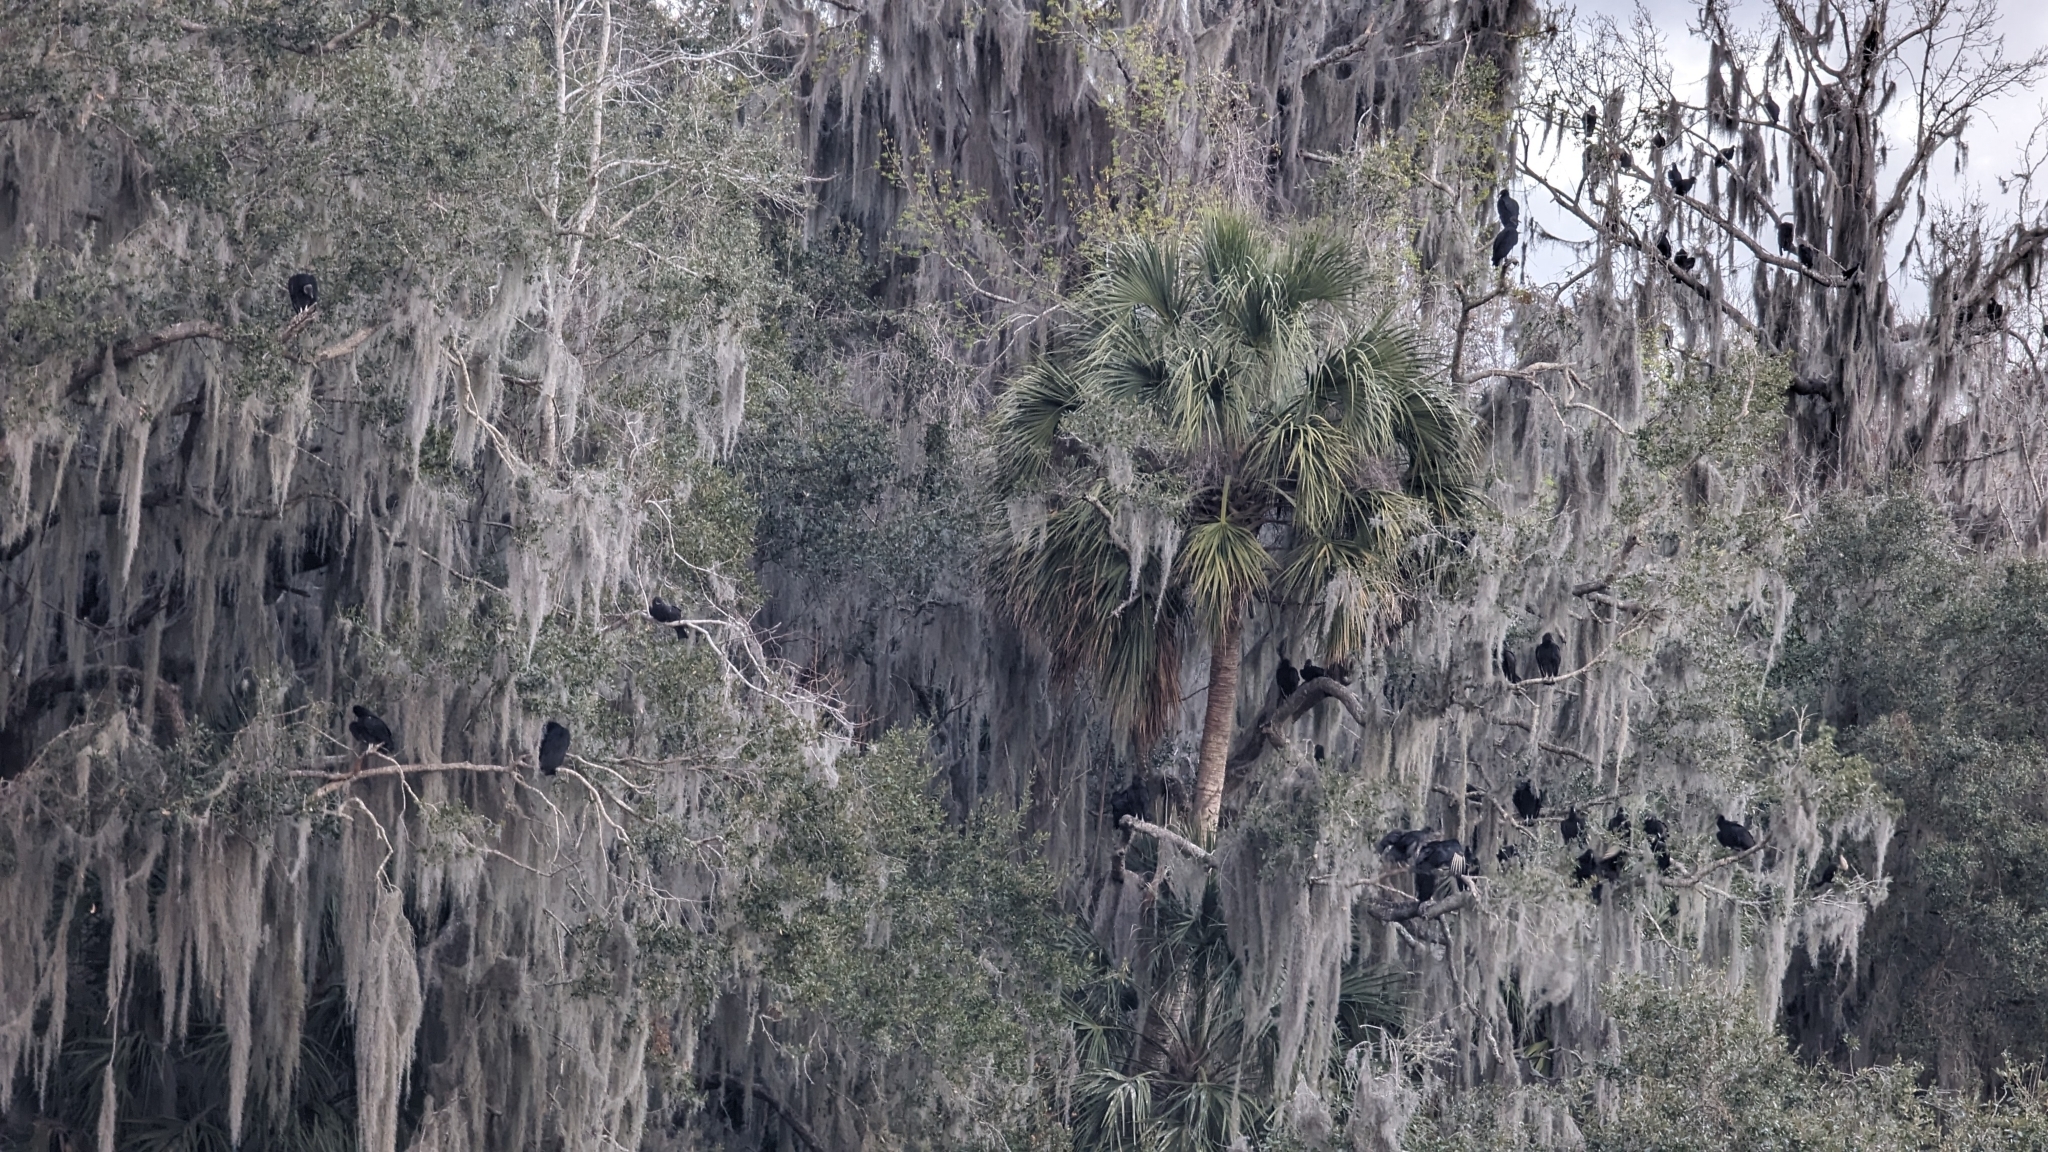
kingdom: Plantae
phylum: Tracheophyta
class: Liliopsida
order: Poales
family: Bromeliaceae
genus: Tillandsia
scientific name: Tillandsia usneoides
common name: Spanish moss
